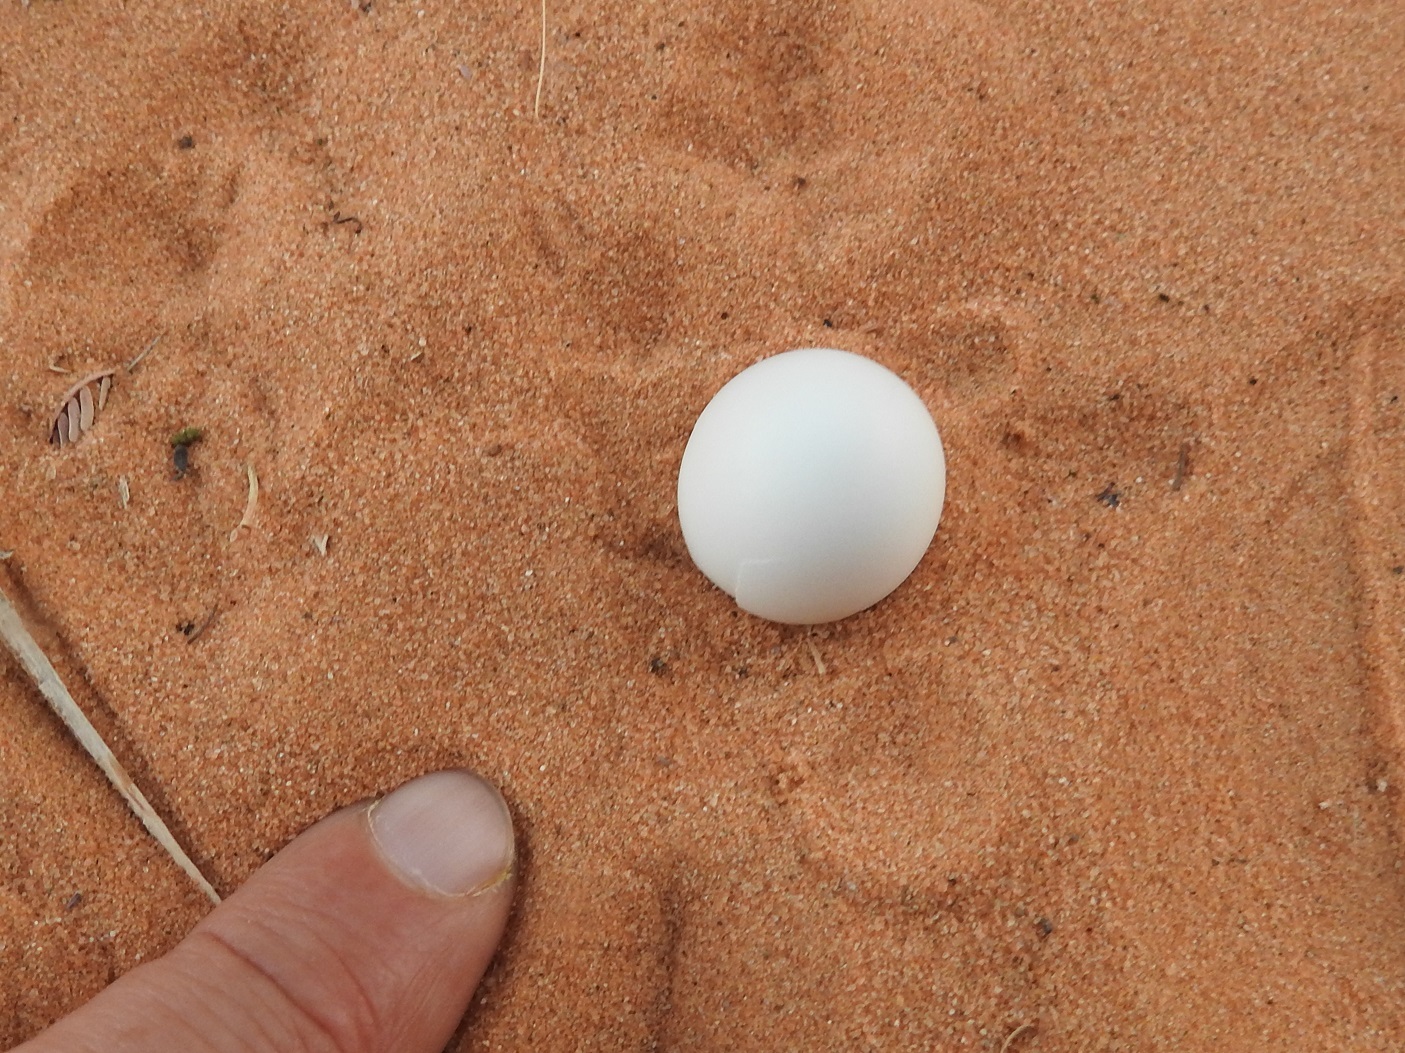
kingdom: Animalia
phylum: Chordata
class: Aves
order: Columbiformes
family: Columbidae
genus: Spilopelia
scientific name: Spilopelia senegalensis
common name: Laughing dove
